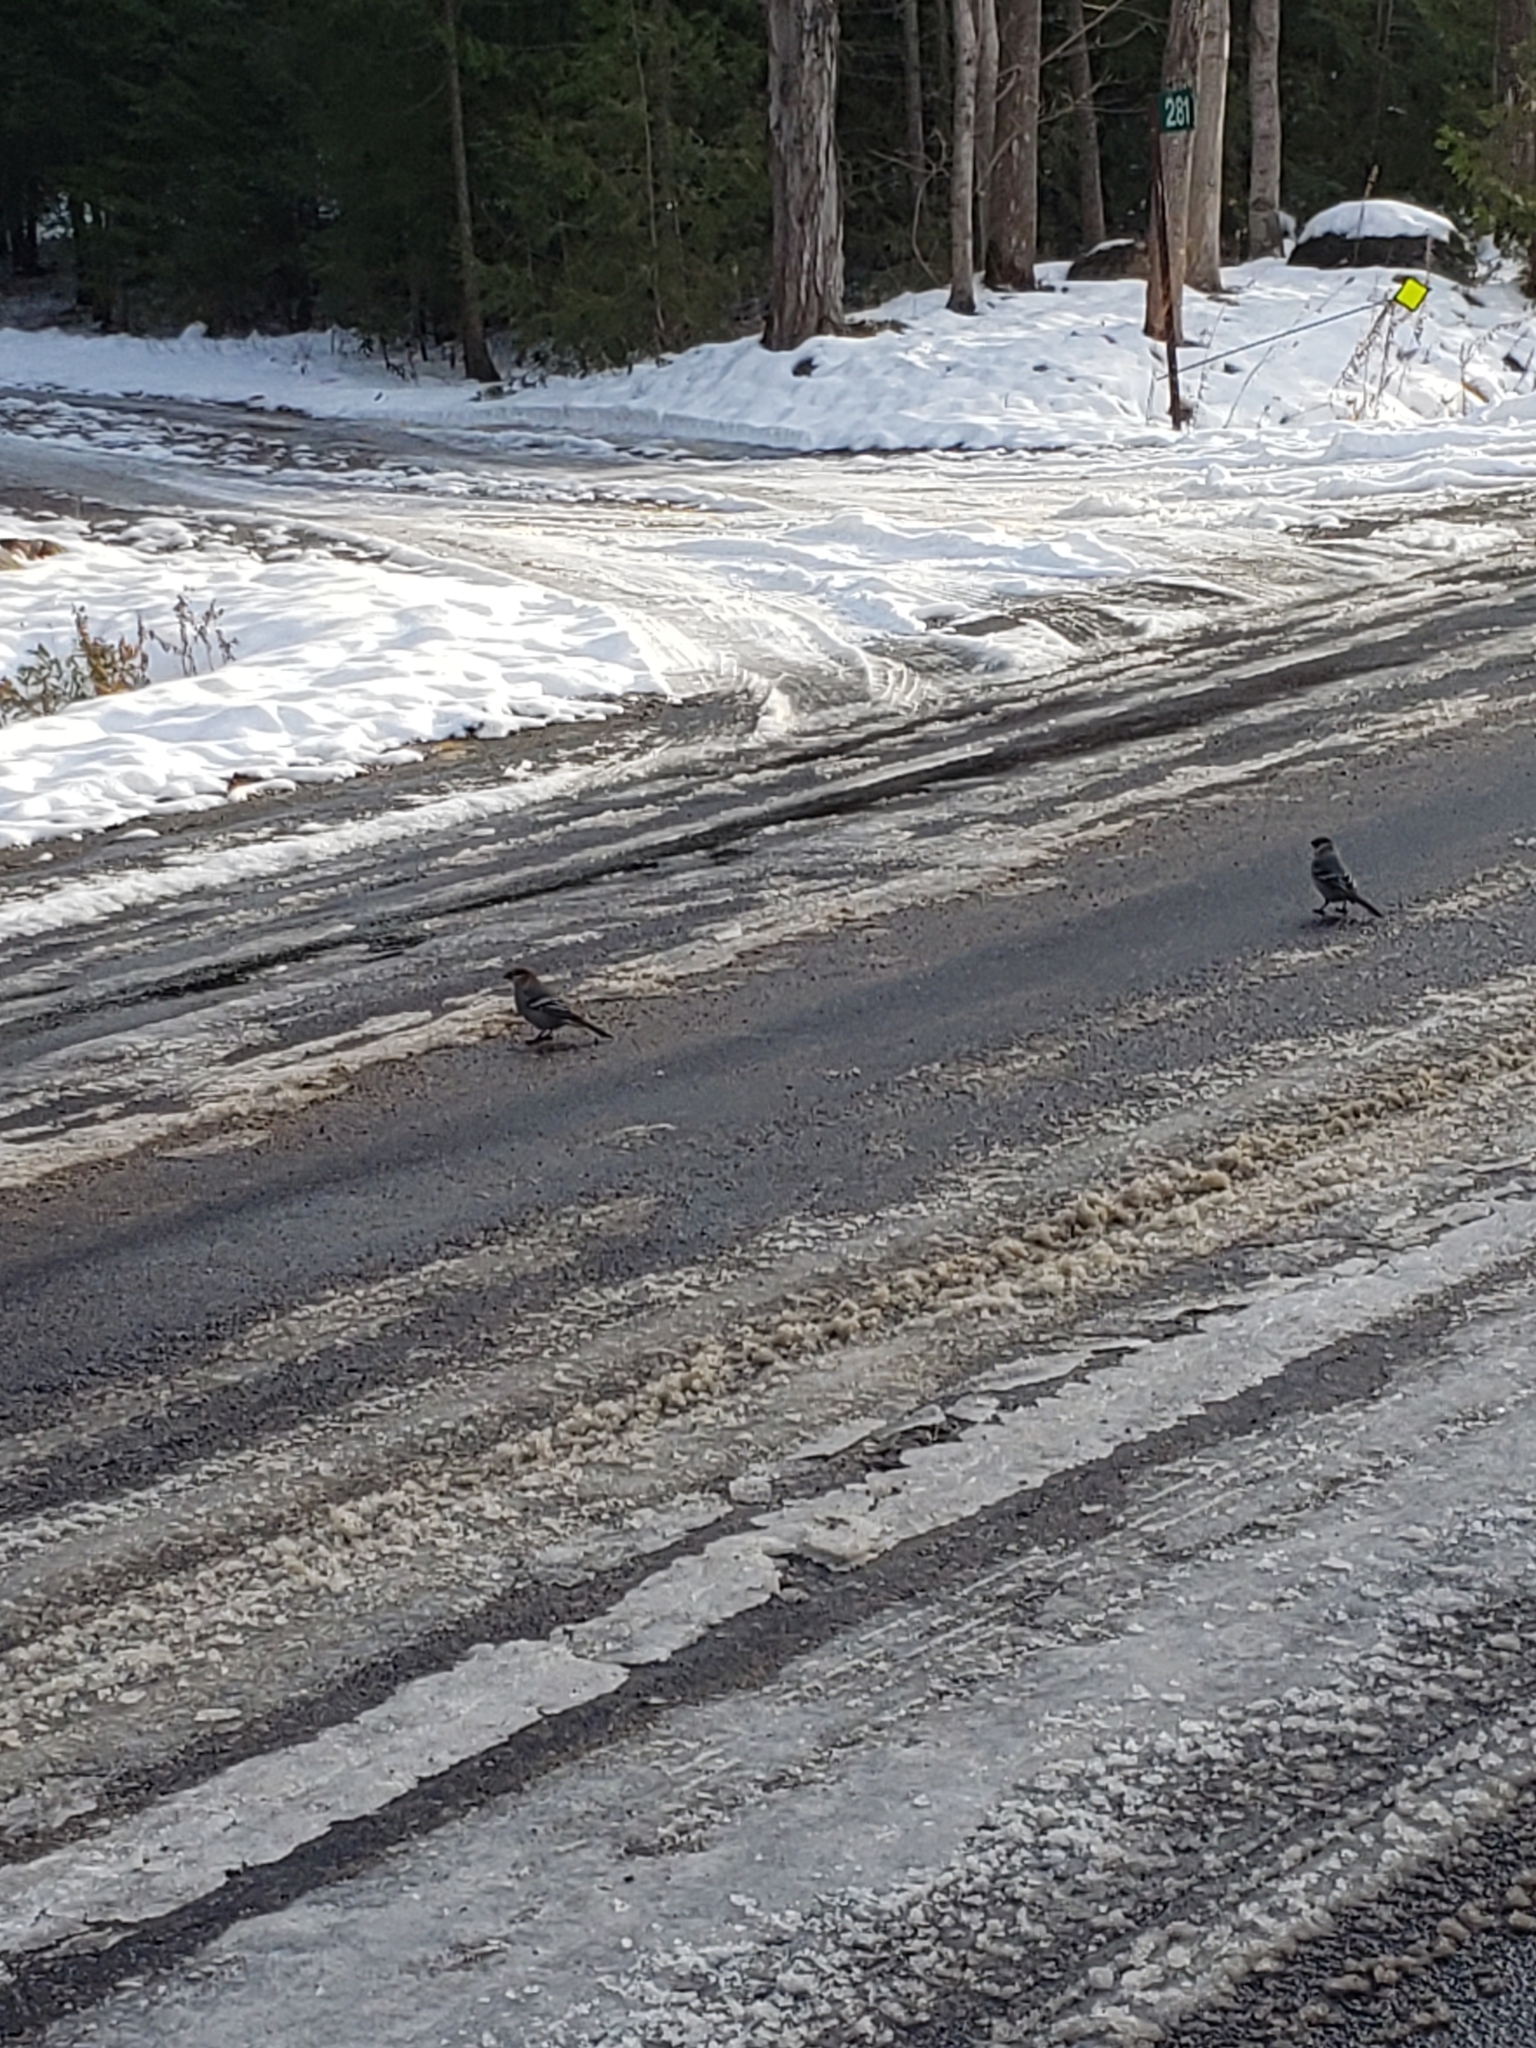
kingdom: Animalia
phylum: Chordata
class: Aves
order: Passeriformes
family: Fringillidae
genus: Pinicola
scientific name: Pinicola enucleator
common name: Pine grosbeak
